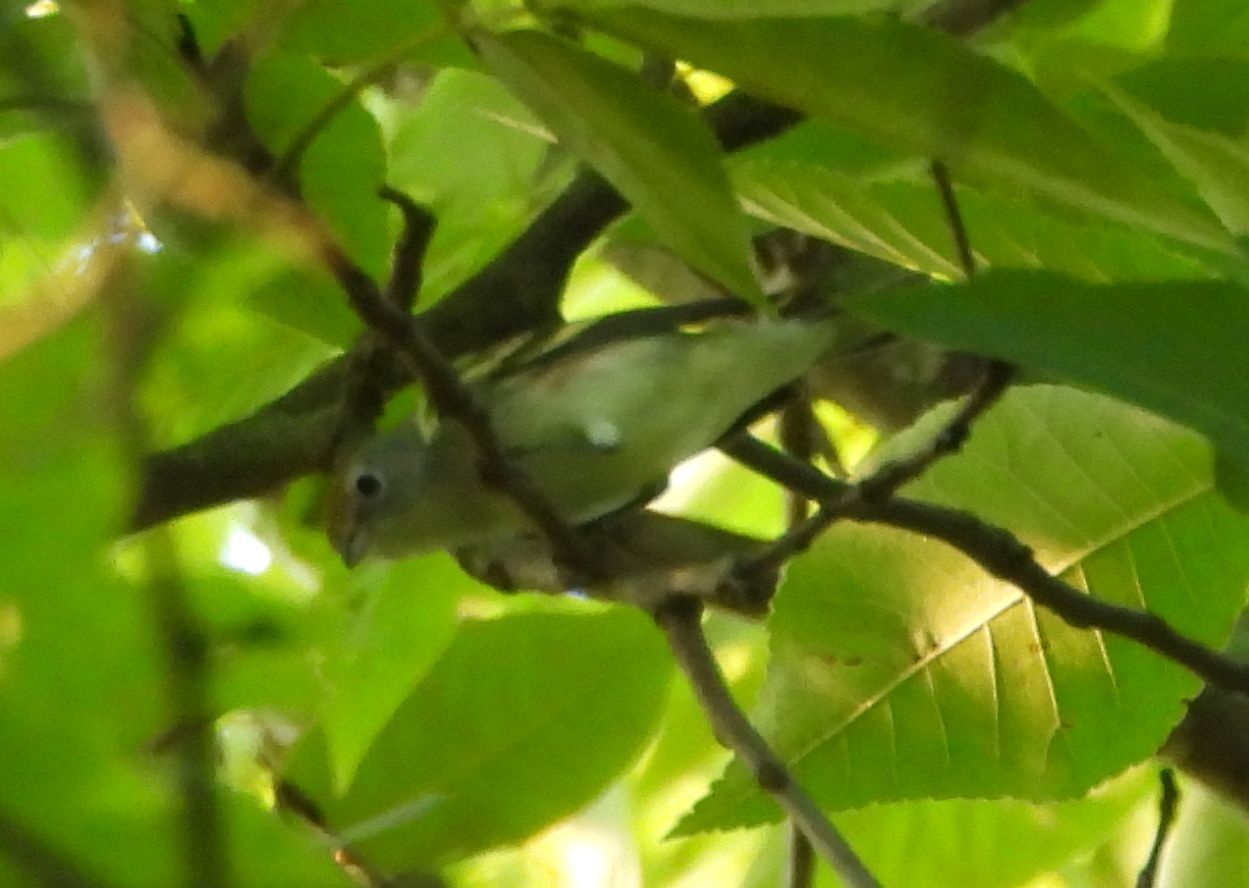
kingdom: Animalia
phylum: Chordata
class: Aves
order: Passeriformes
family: Parulidae
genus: Setophaga
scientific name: Setophaga pensylvanica
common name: Chestnut-sided warbler
